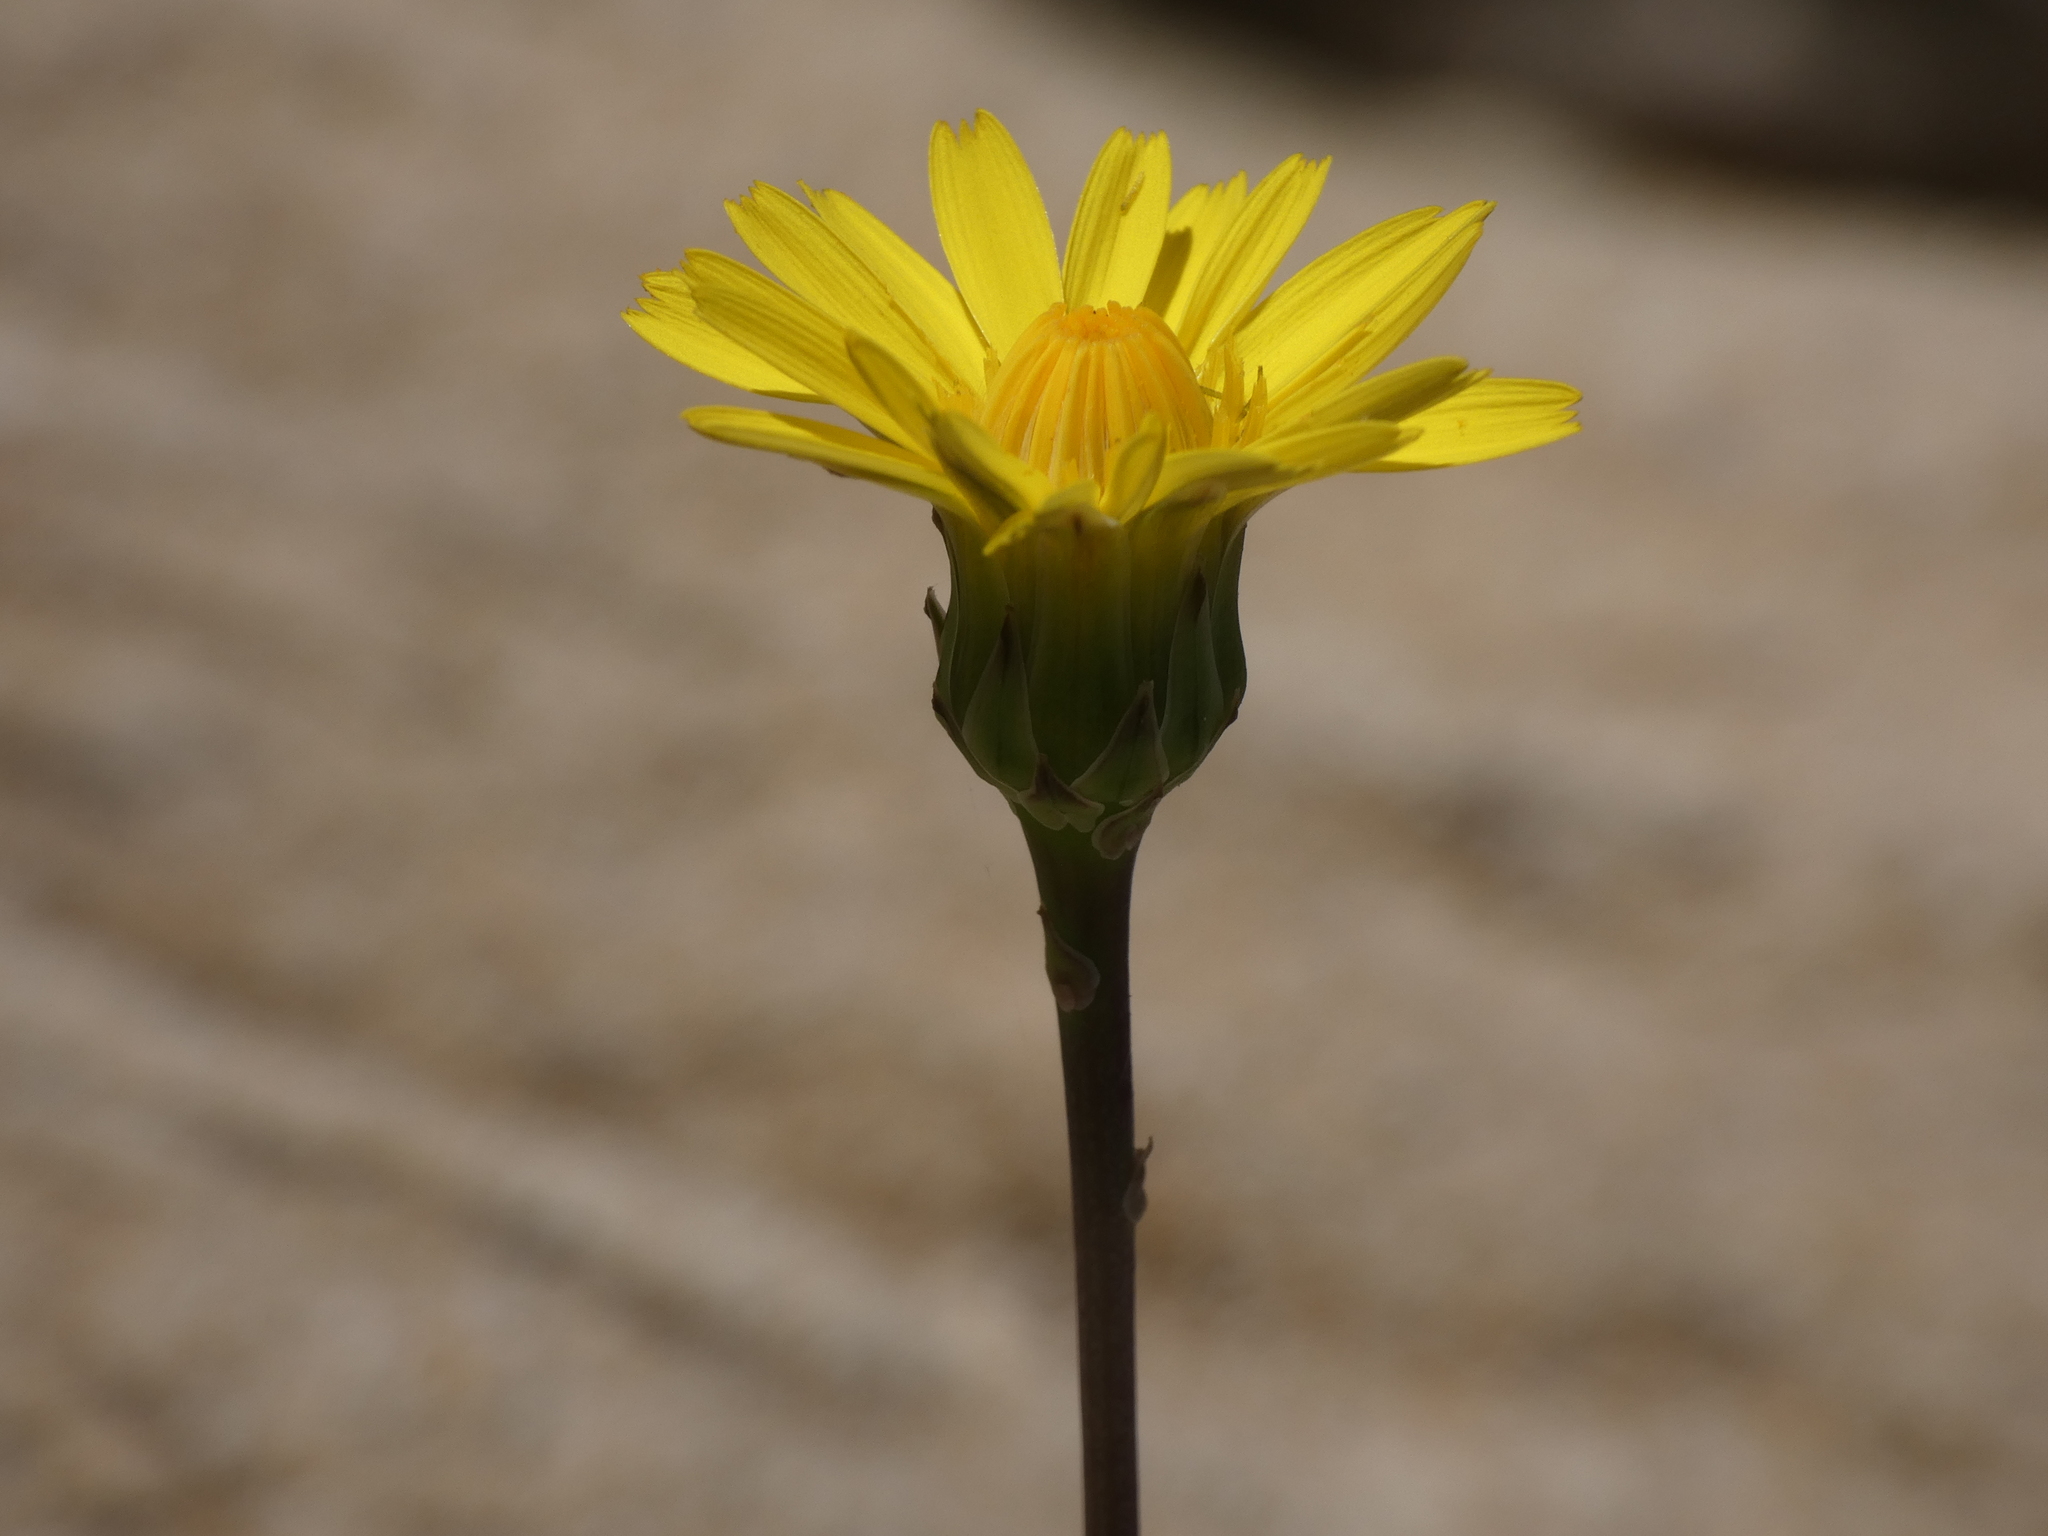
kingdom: Plantae
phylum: Tracheophyta
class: Magnoliopsida
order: Asterales
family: Asteraceae
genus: Reichardia
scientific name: Reichardia picroides
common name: Common brighteyes
